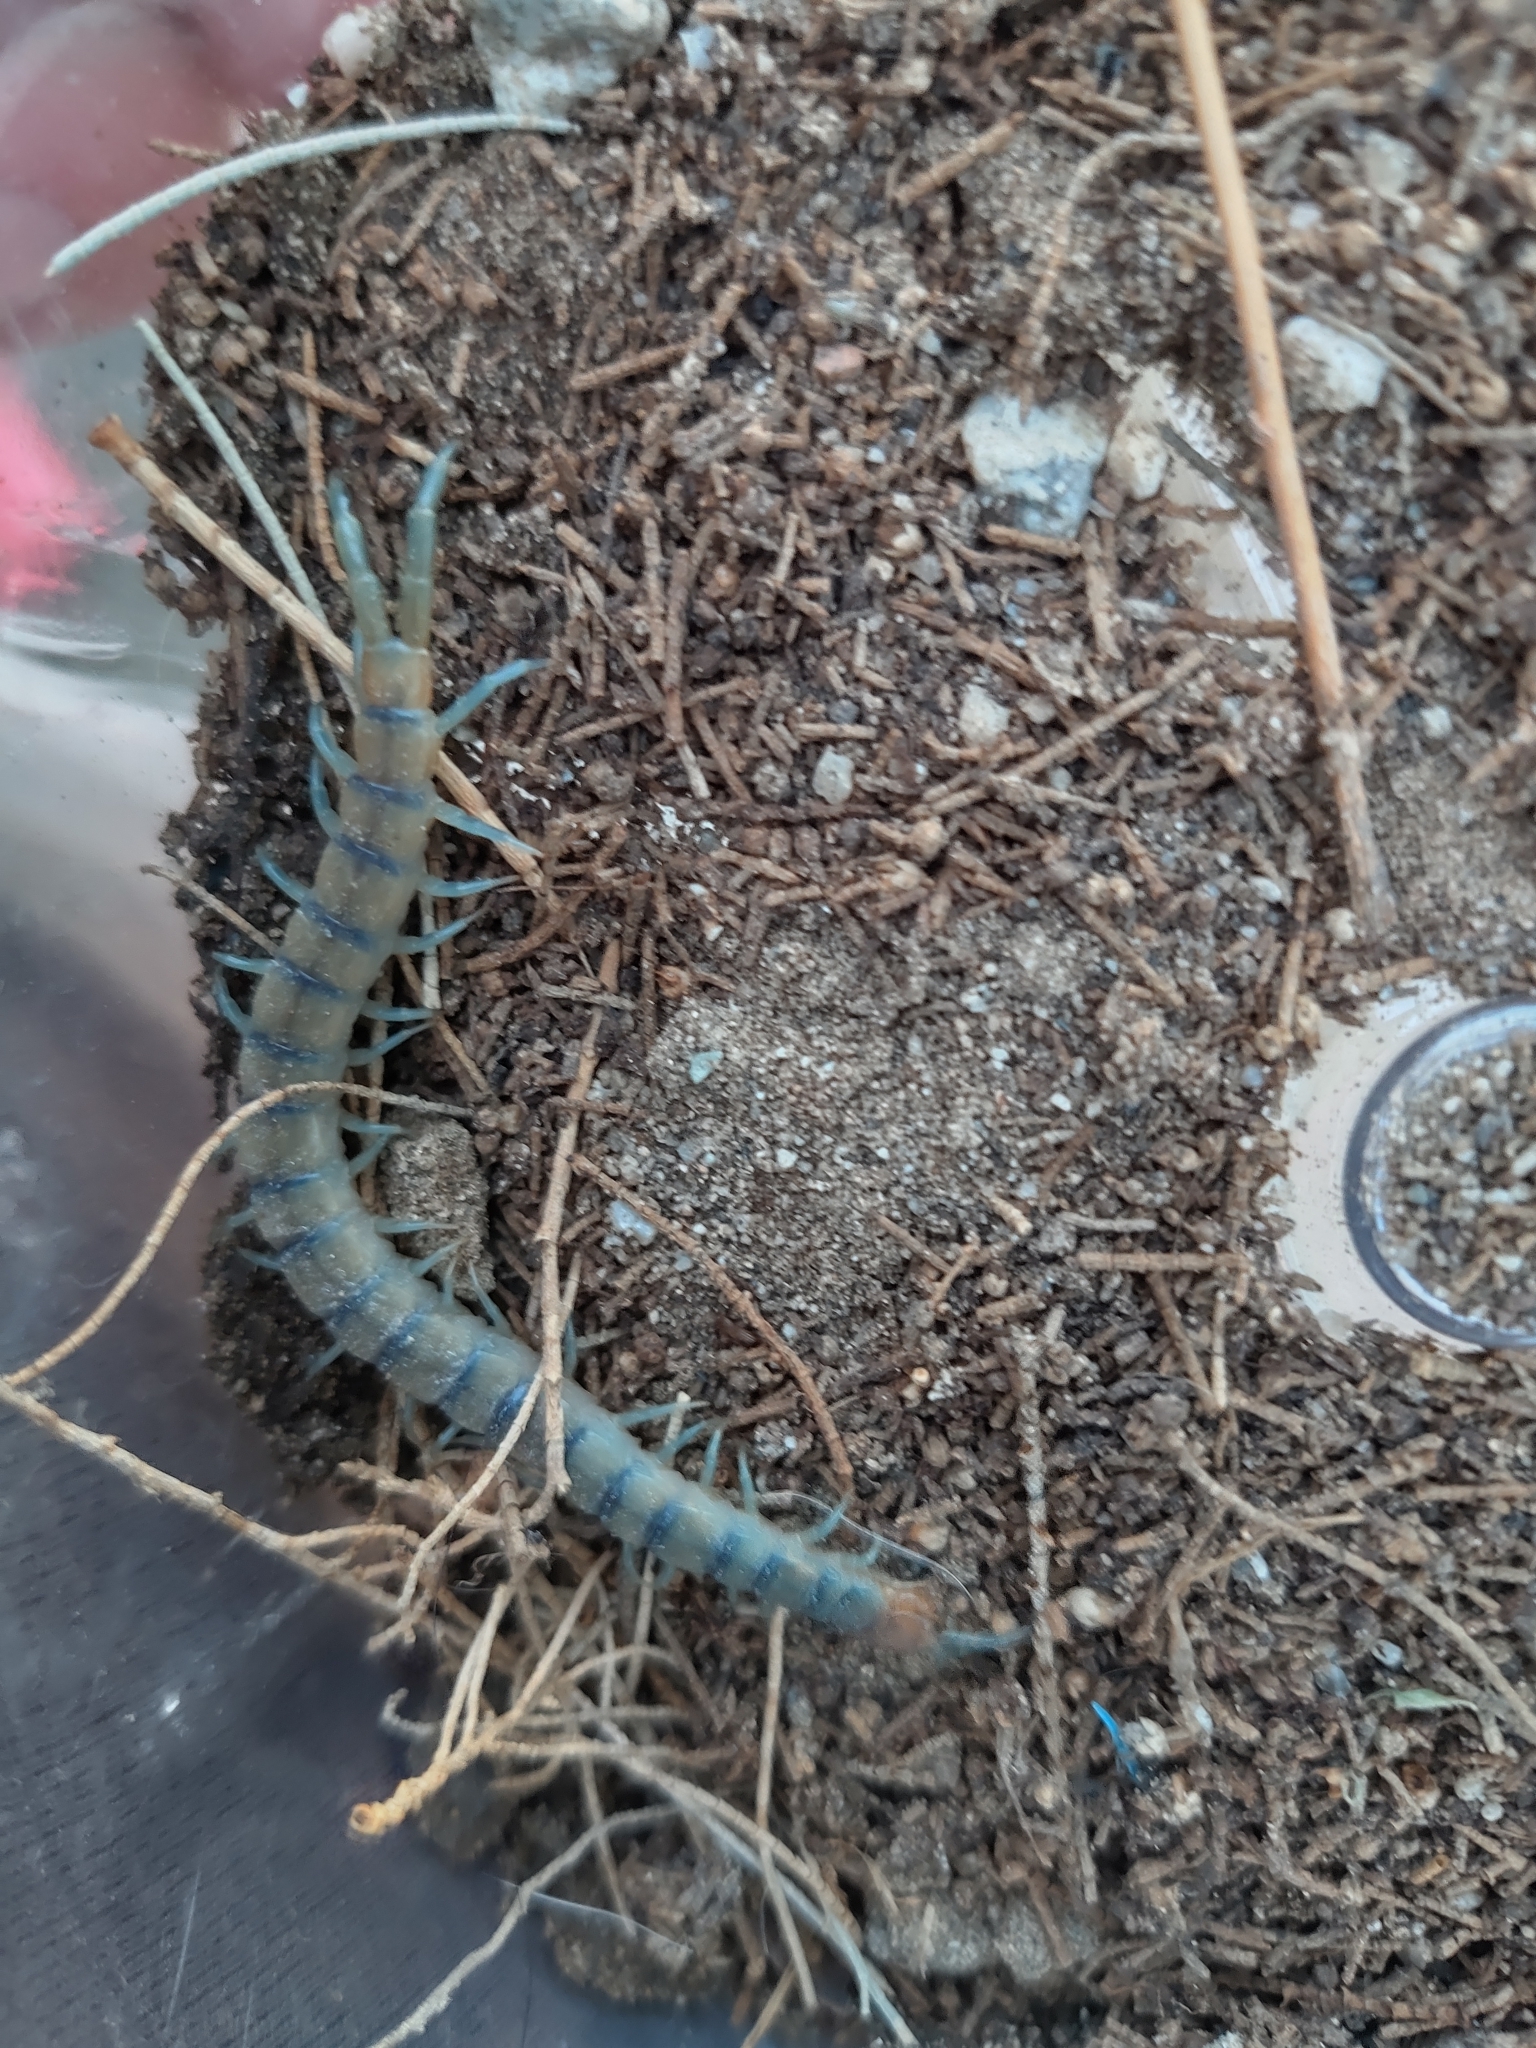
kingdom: Animalia
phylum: Arthropoda
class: Chilopoda
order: Scolopendromorpha
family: Scolopendridae
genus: Scolopendra
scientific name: Scolopendra polymorpha
